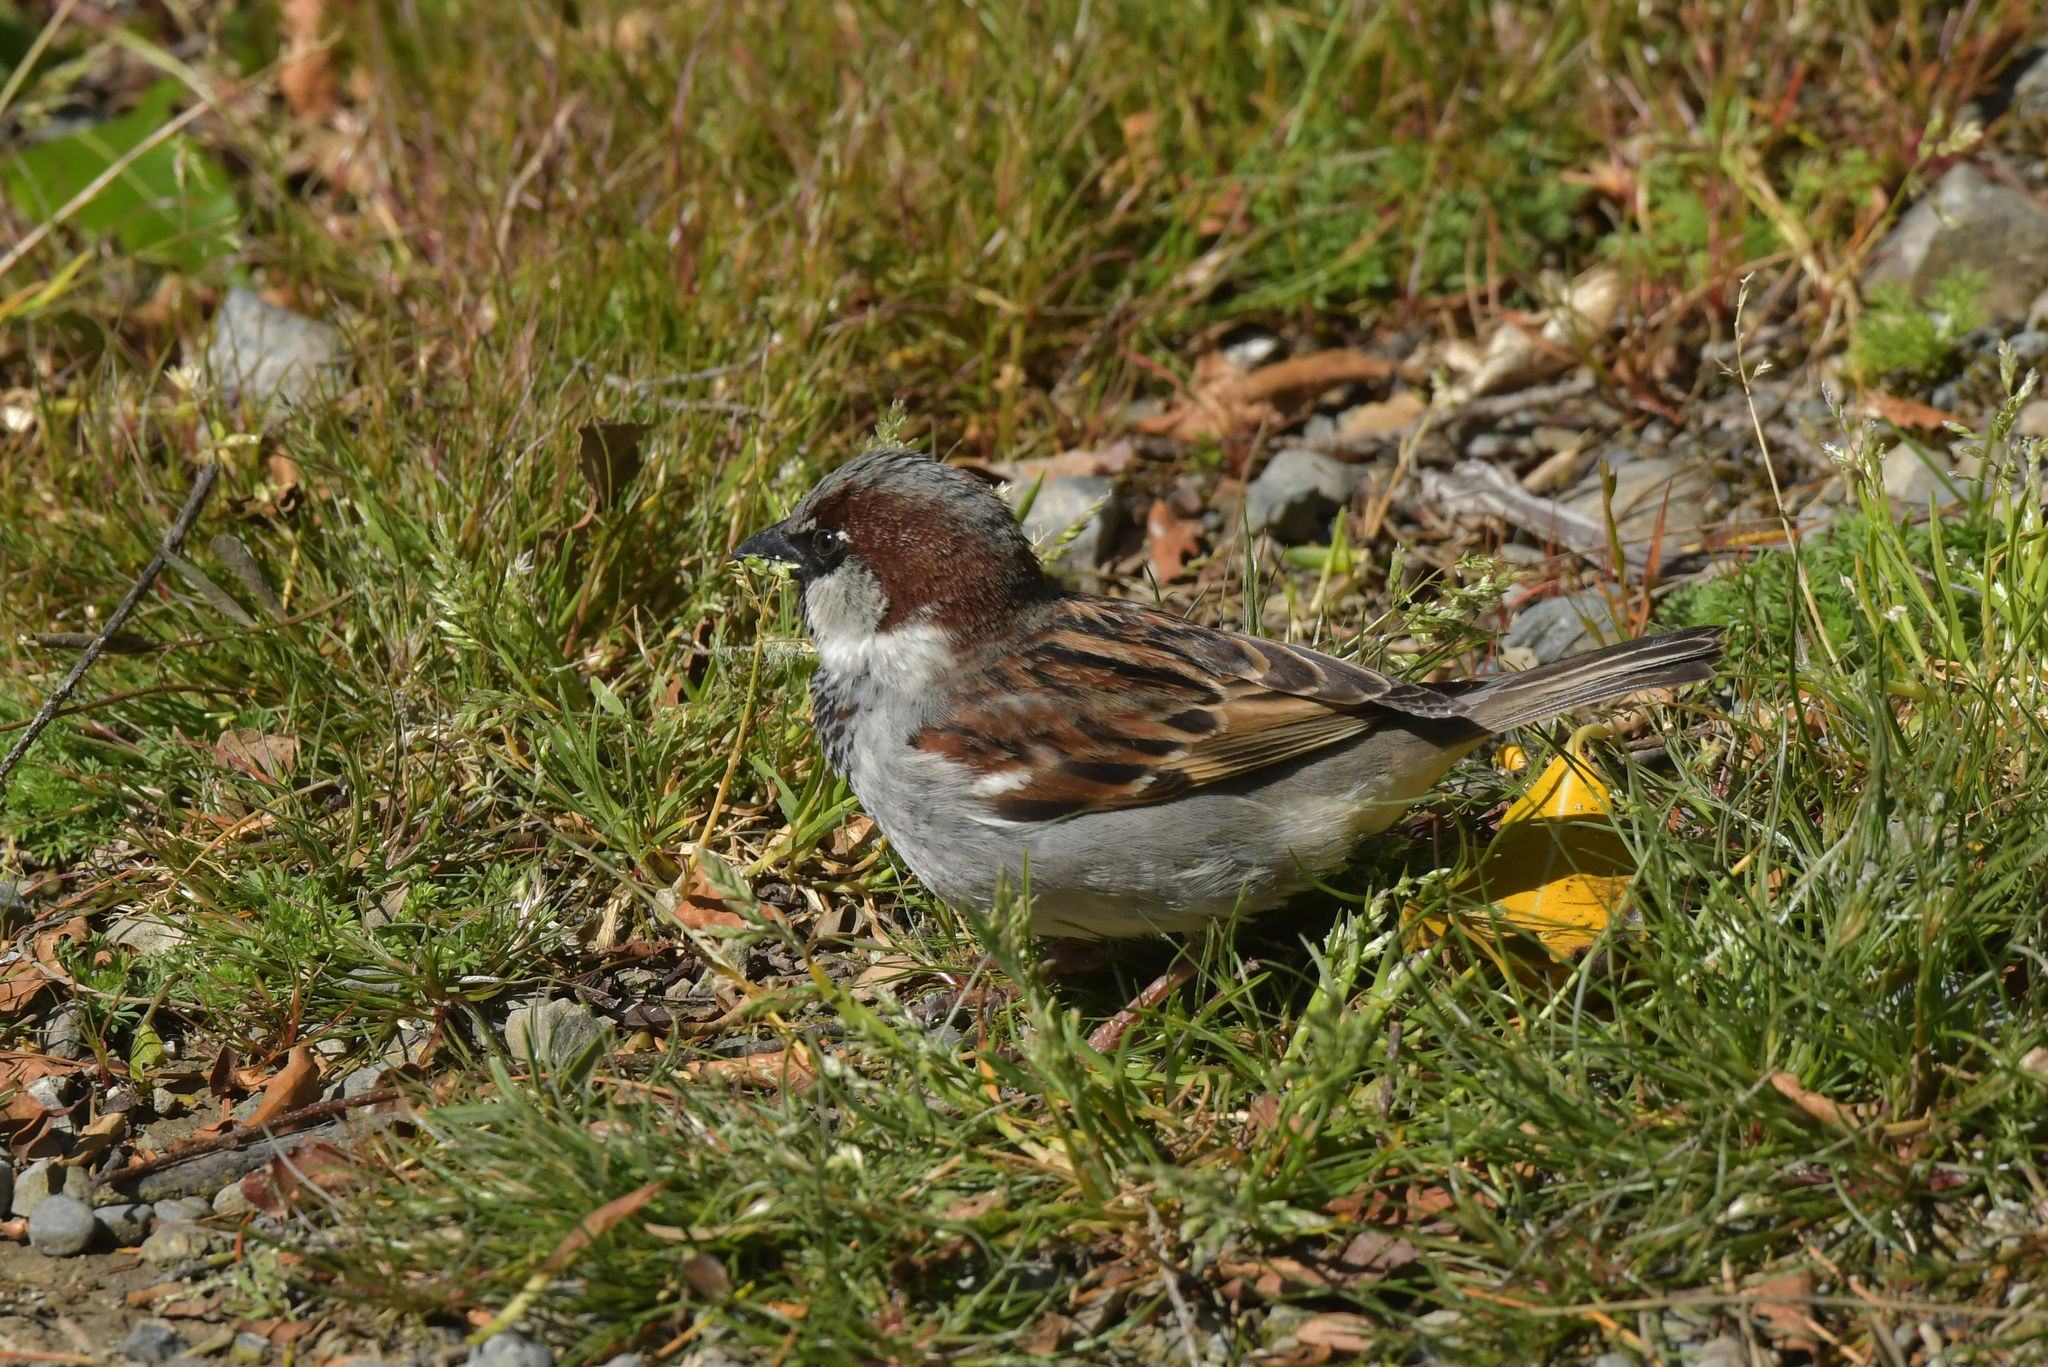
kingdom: Animalia
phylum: Chordata
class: Aves
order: Passeriformes
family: Passeridae
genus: Passer
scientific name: Passer domesticus
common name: House sparrow
